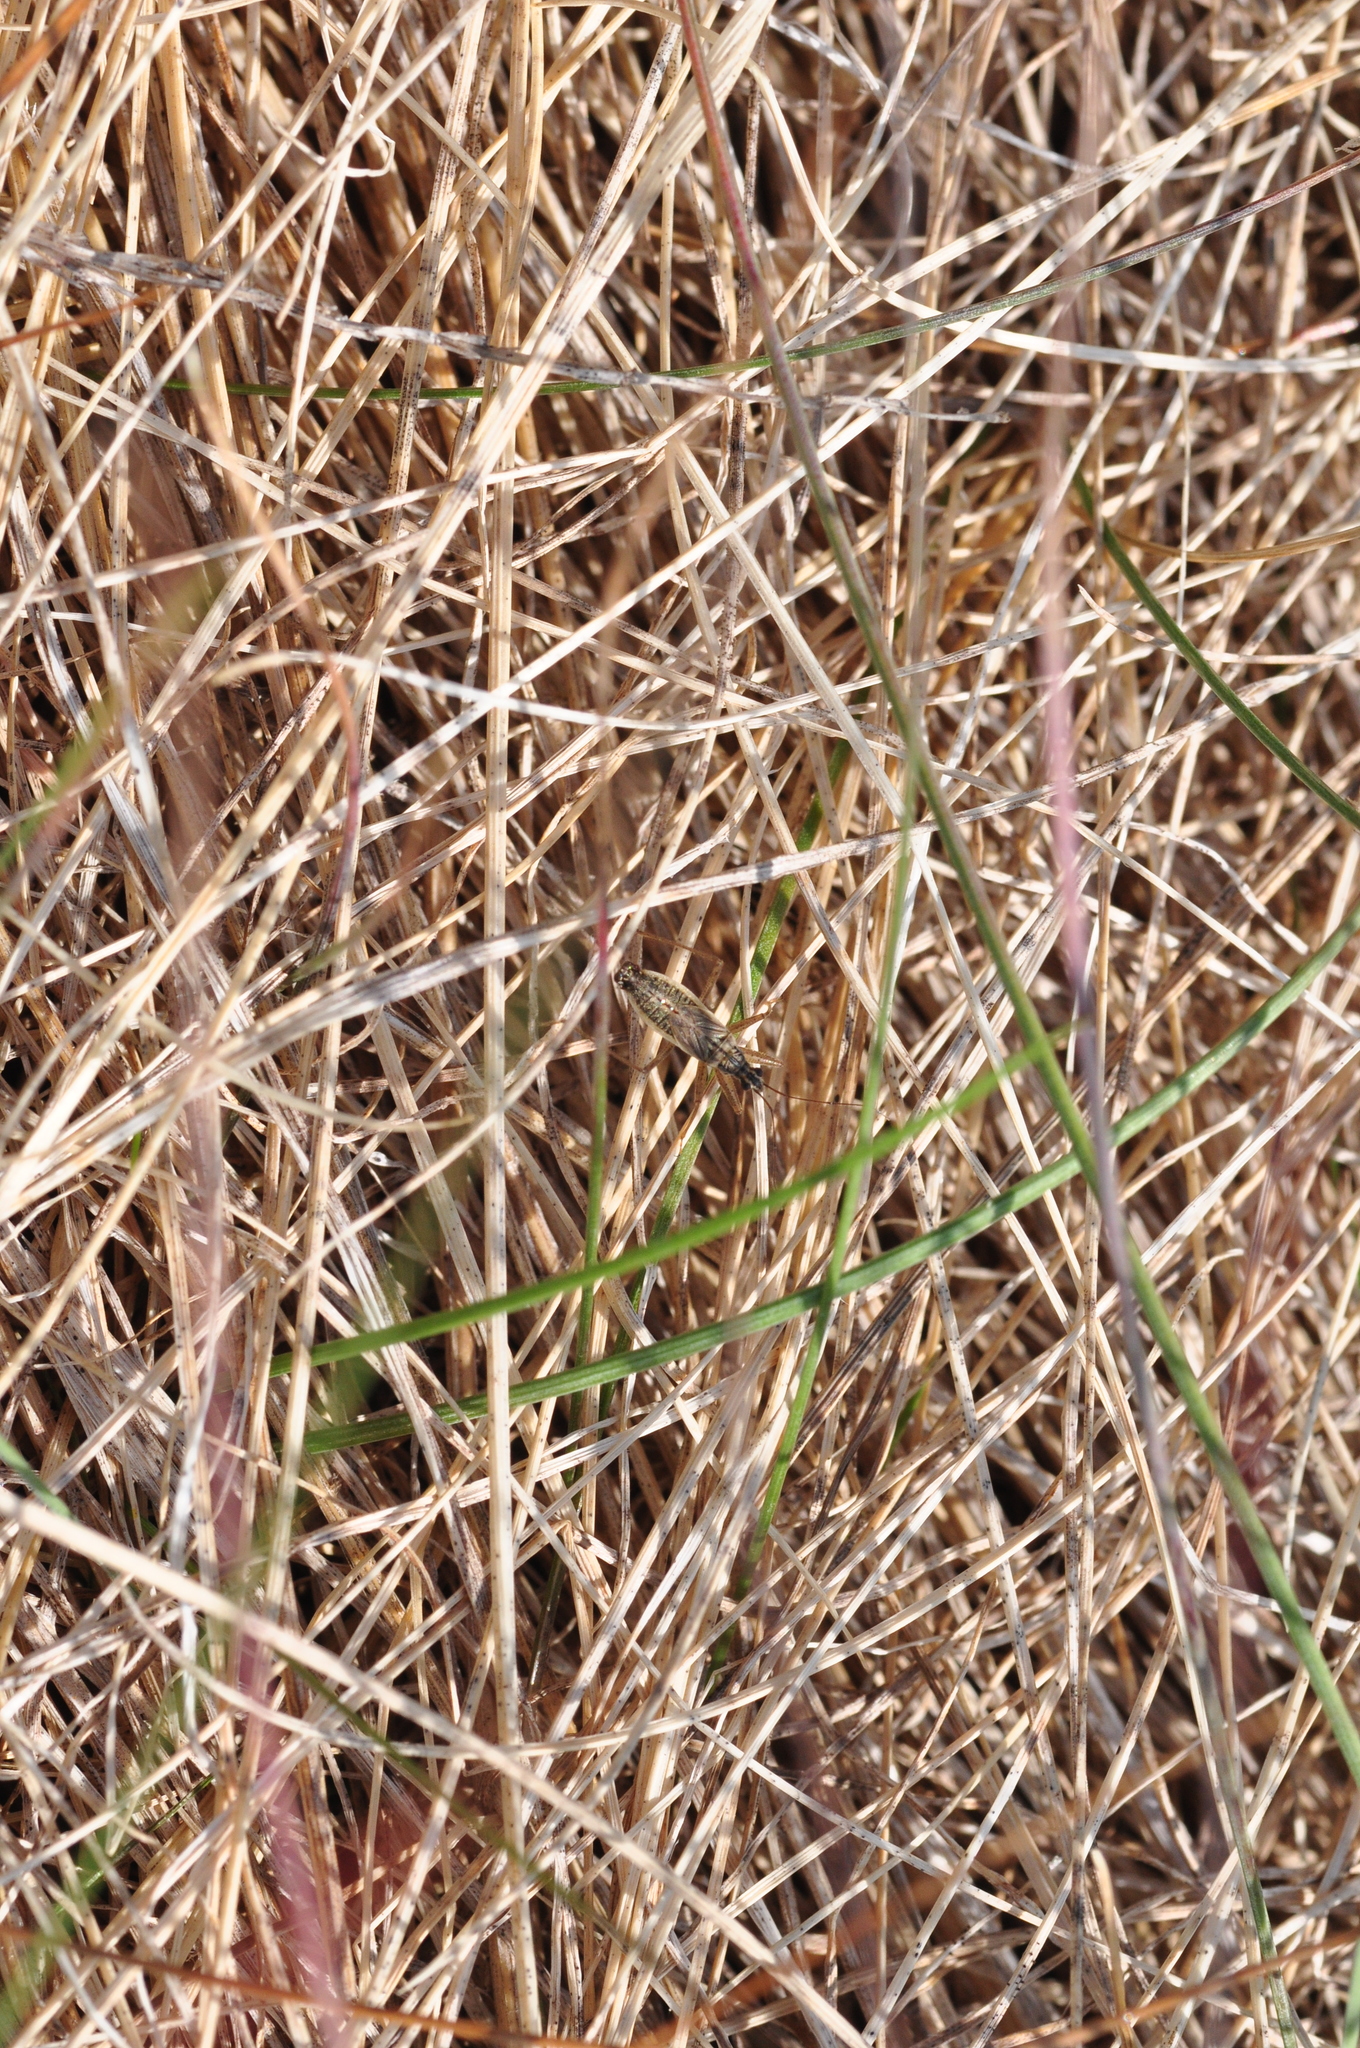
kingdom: Animalia
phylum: Arthropoda
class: Insecta
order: Hemiptera
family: Nabidae
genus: Nabis
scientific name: Nabis flavomarginatus
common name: Broad damselbug
